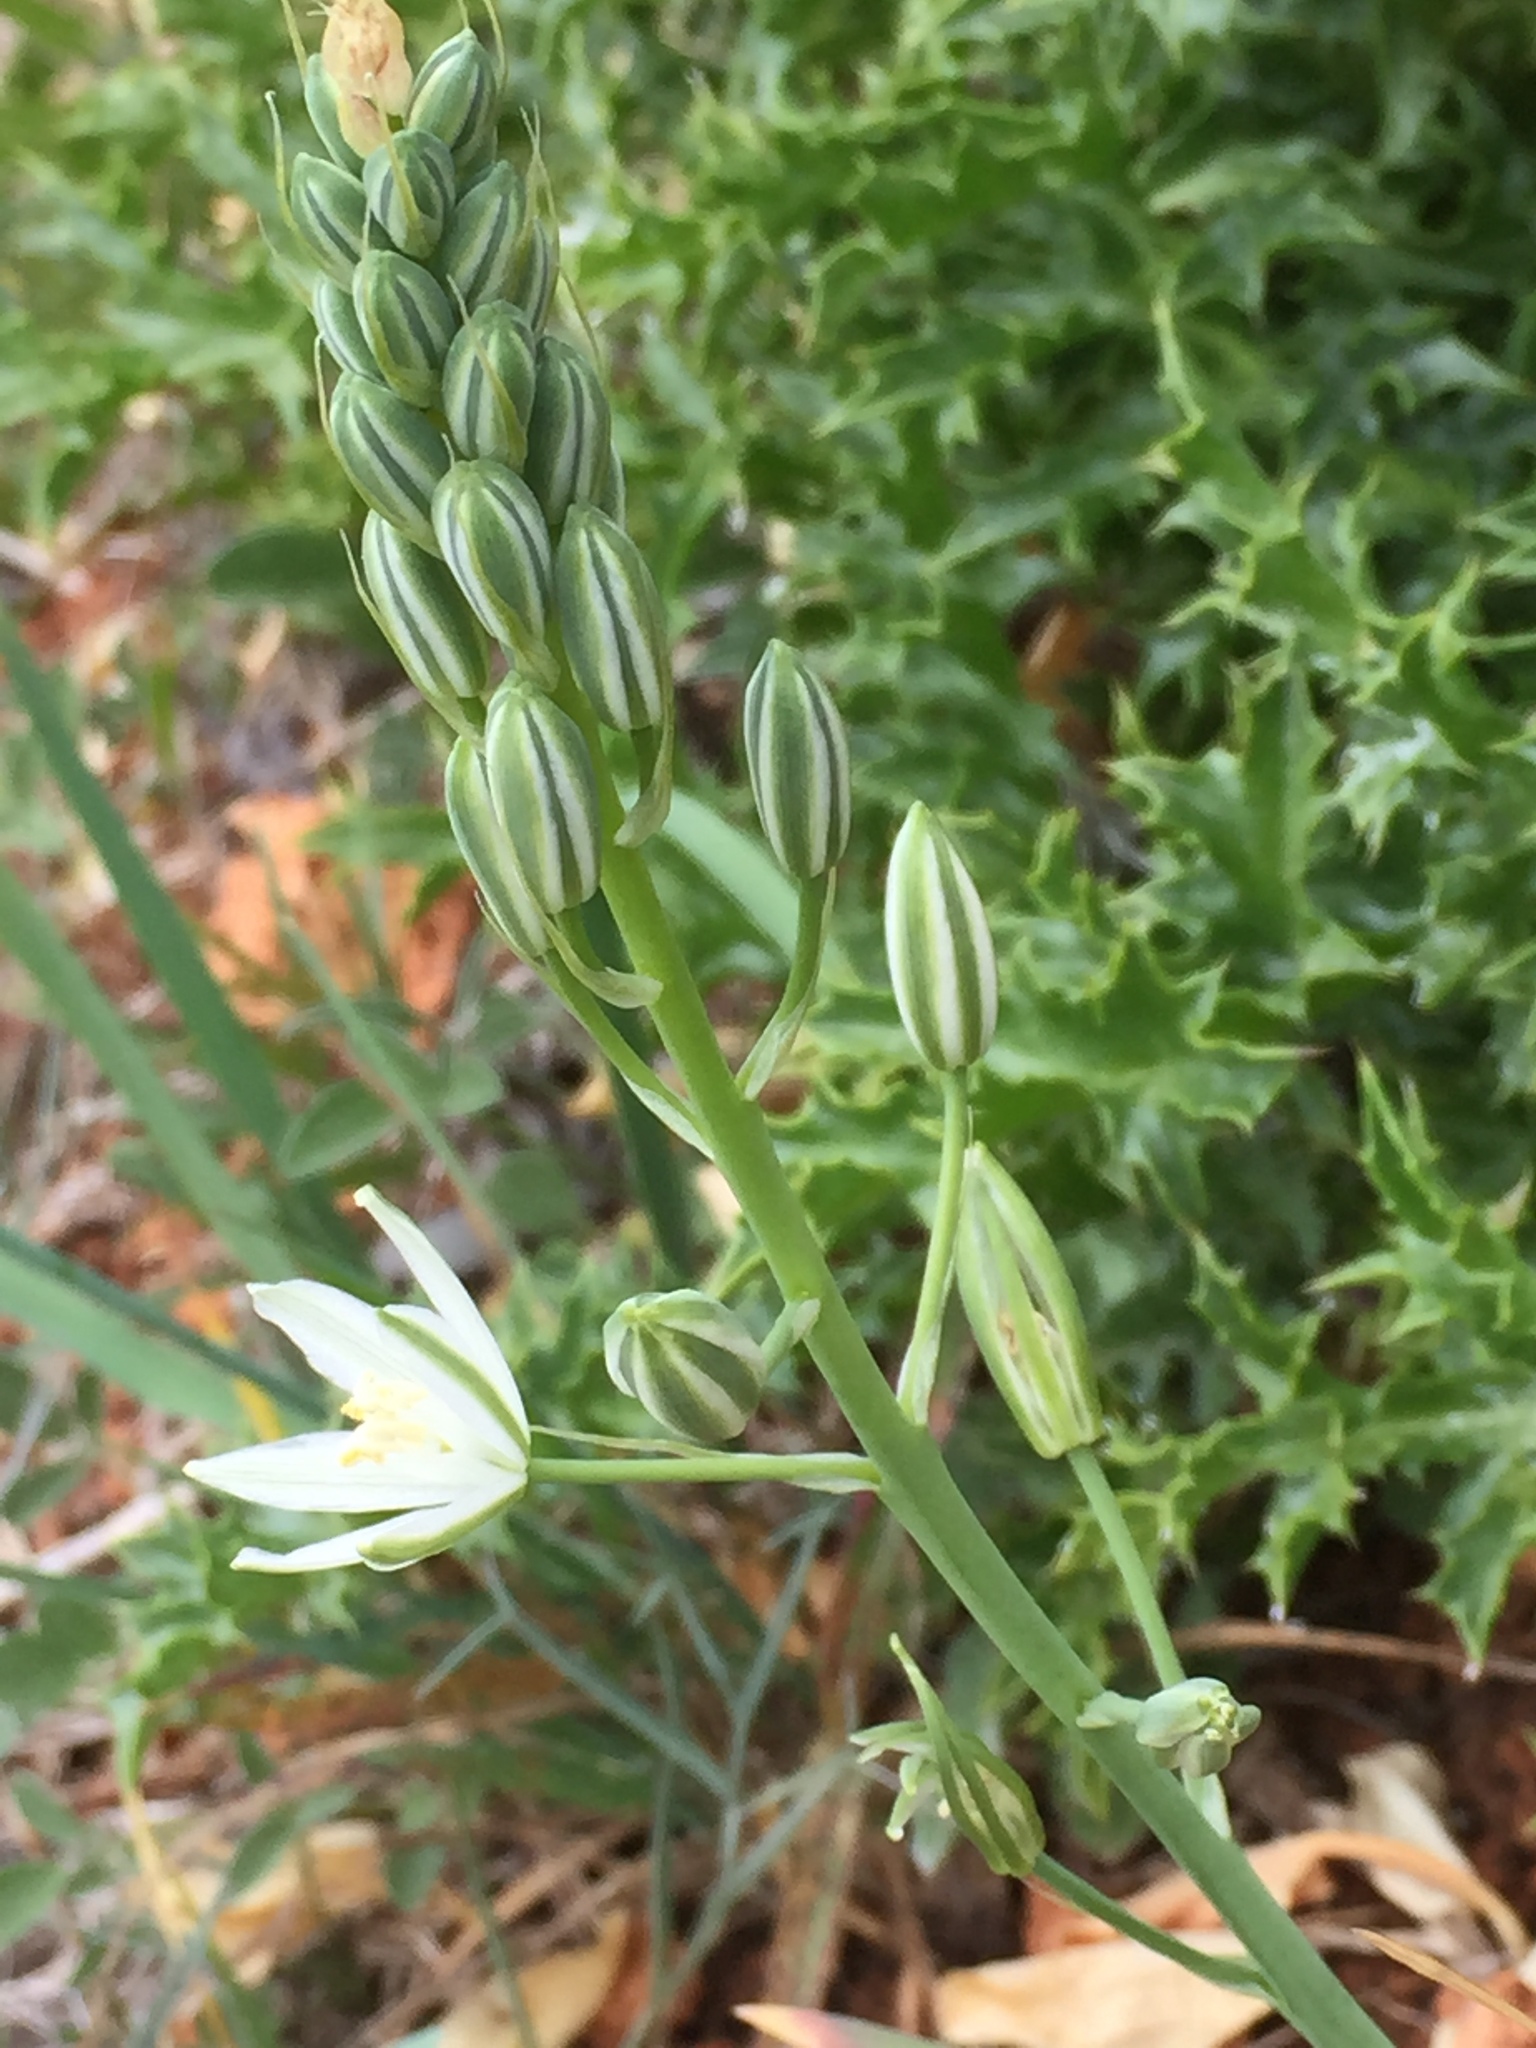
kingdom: Plantae
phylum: Tracheophyta
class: Liliopsida
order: Asparagales
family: Asparagaceae
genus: Ornithogalum
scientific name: Ornithogalum narbonense
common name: Bath-asparagus
